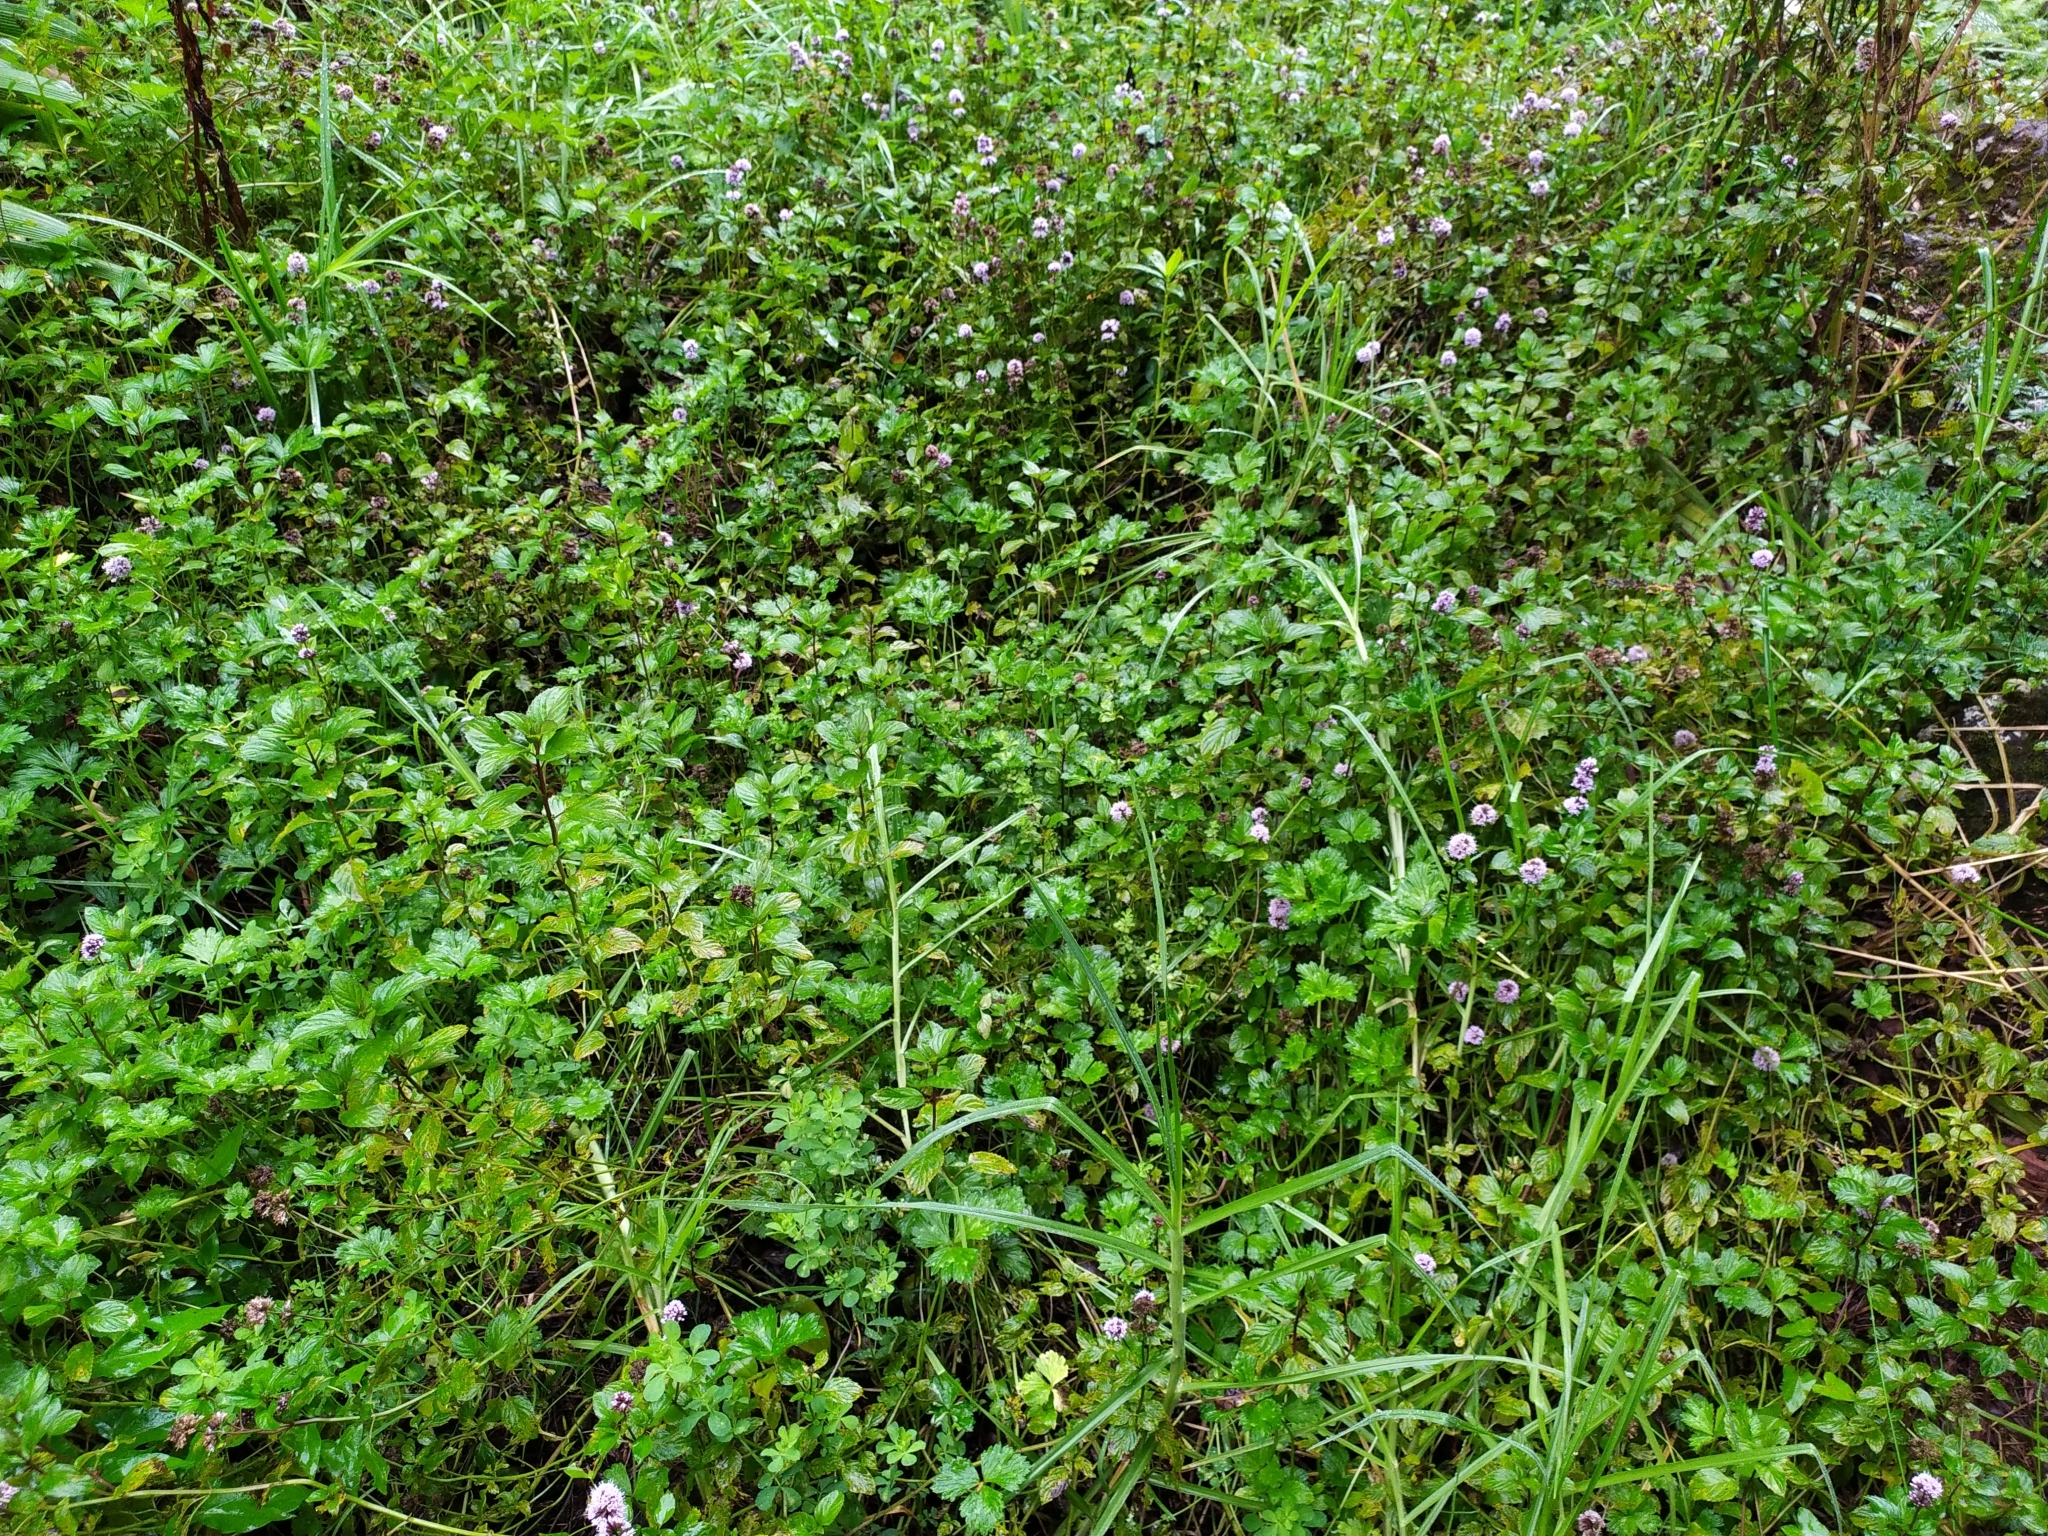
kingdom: Plantae
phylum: Tracheophyta
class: Magnoliopsida
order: Lamiales
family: Lamiaceae
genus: Mentha
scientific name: Mentha piperita
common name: Peppermint
